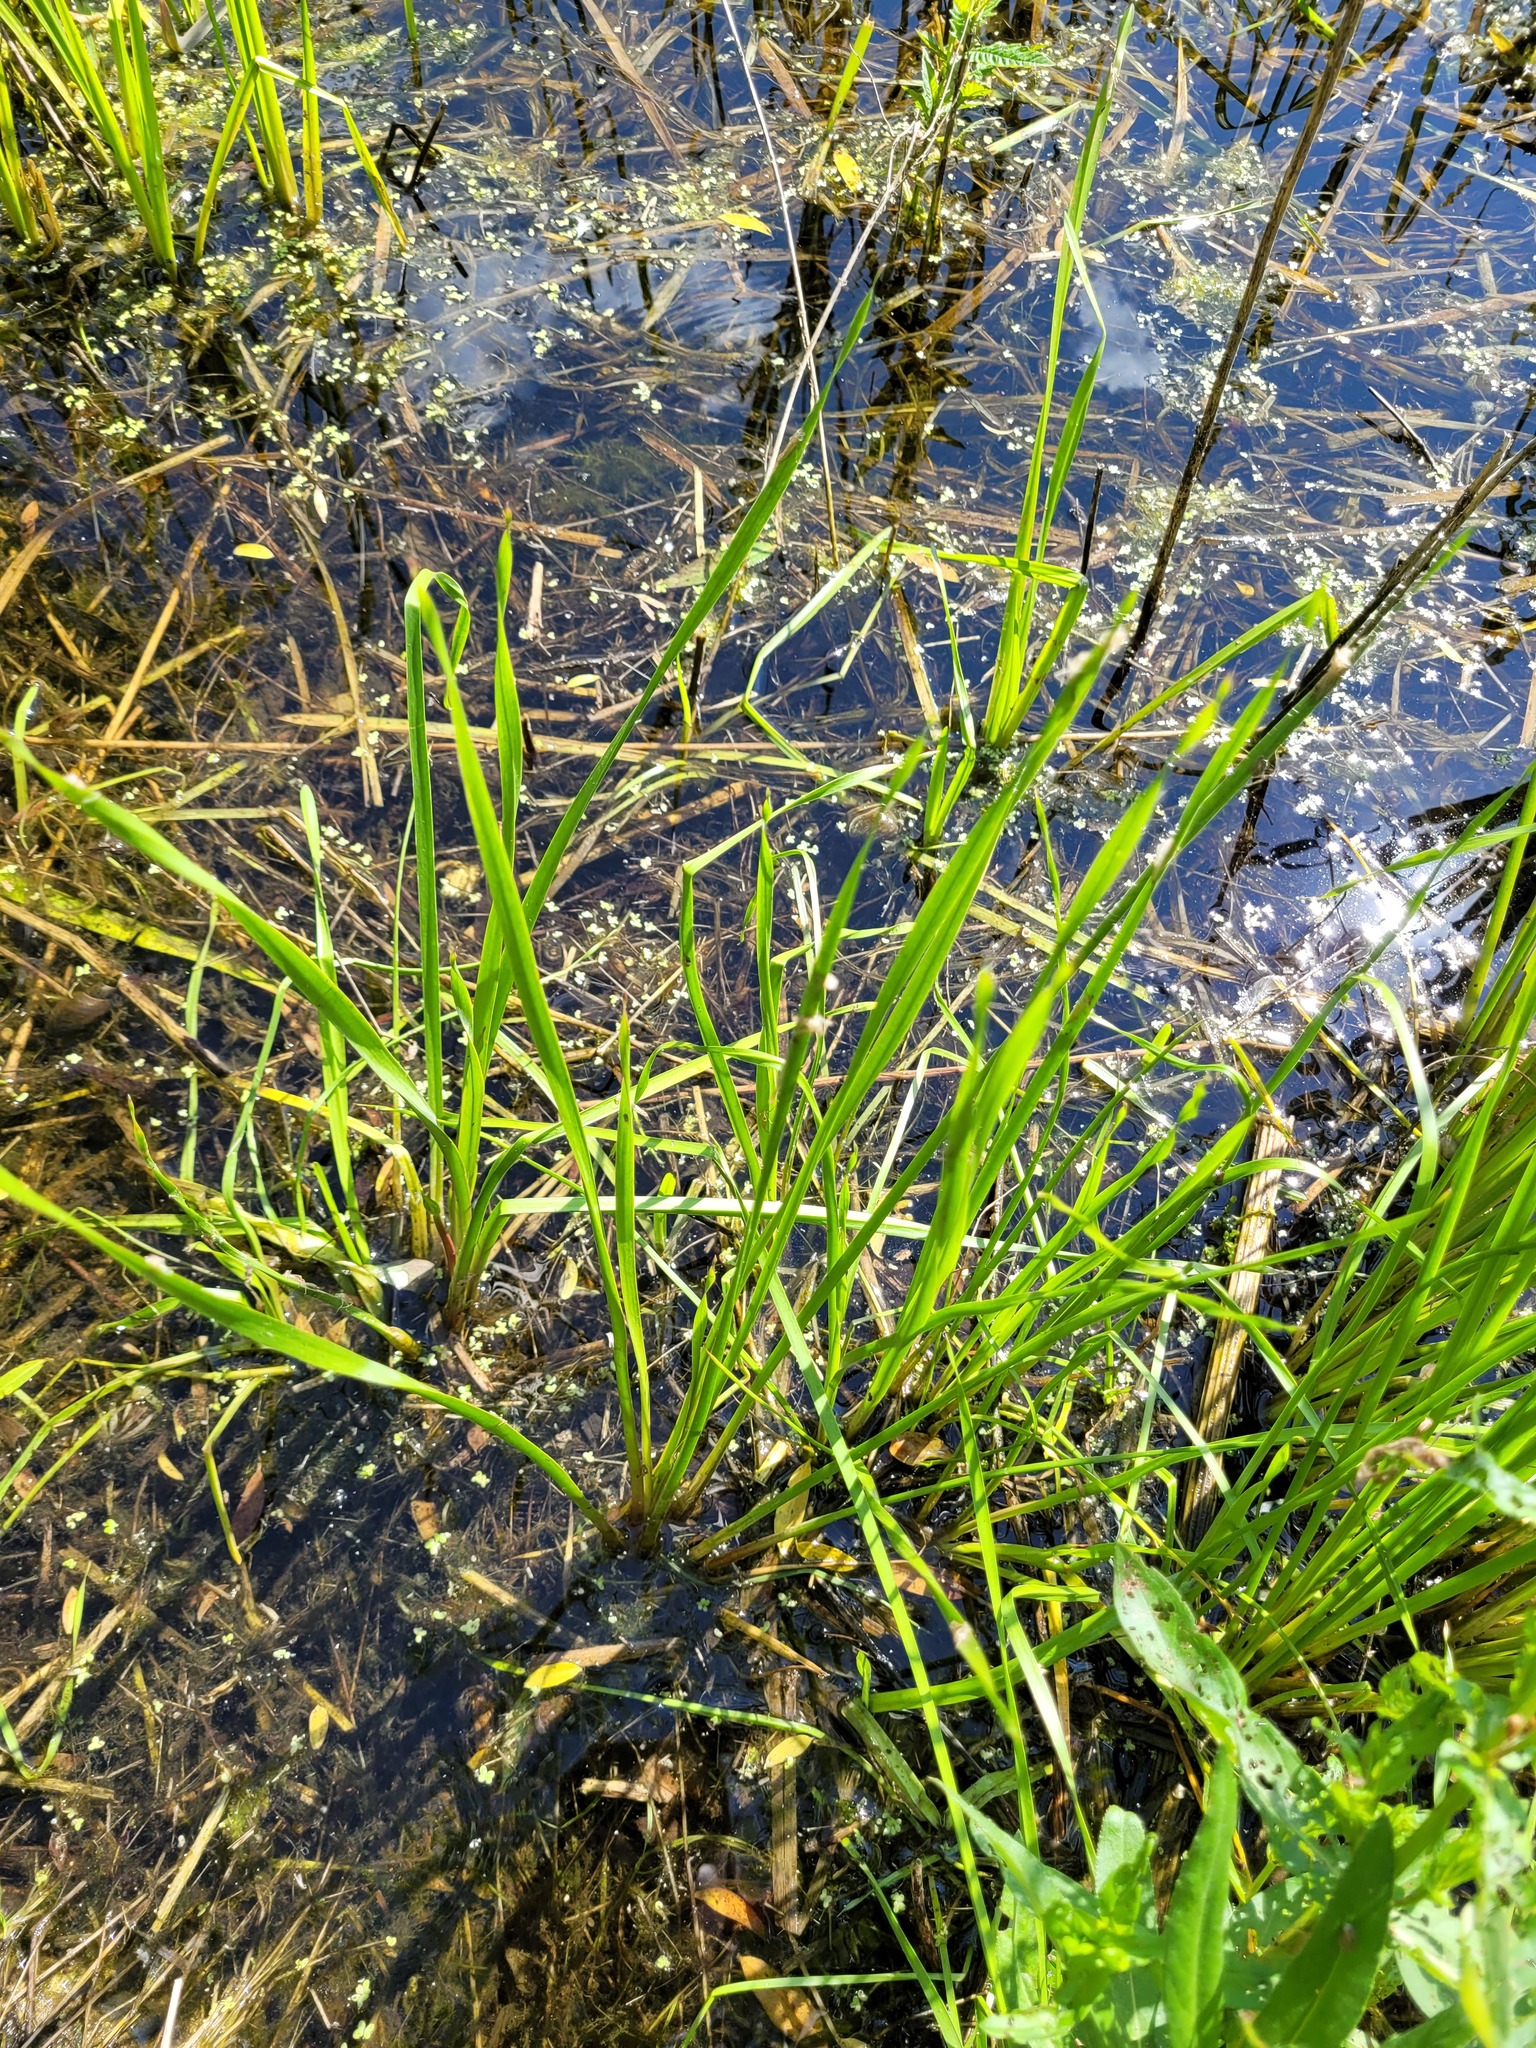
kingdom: Plantae
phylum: Tracheophyta
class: Magnoliopsida
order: Ranunculales
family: Ranunculaceae
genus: Ranunculus
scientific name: Ranunculus sceleratus
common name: Celery-leaved buttercup
